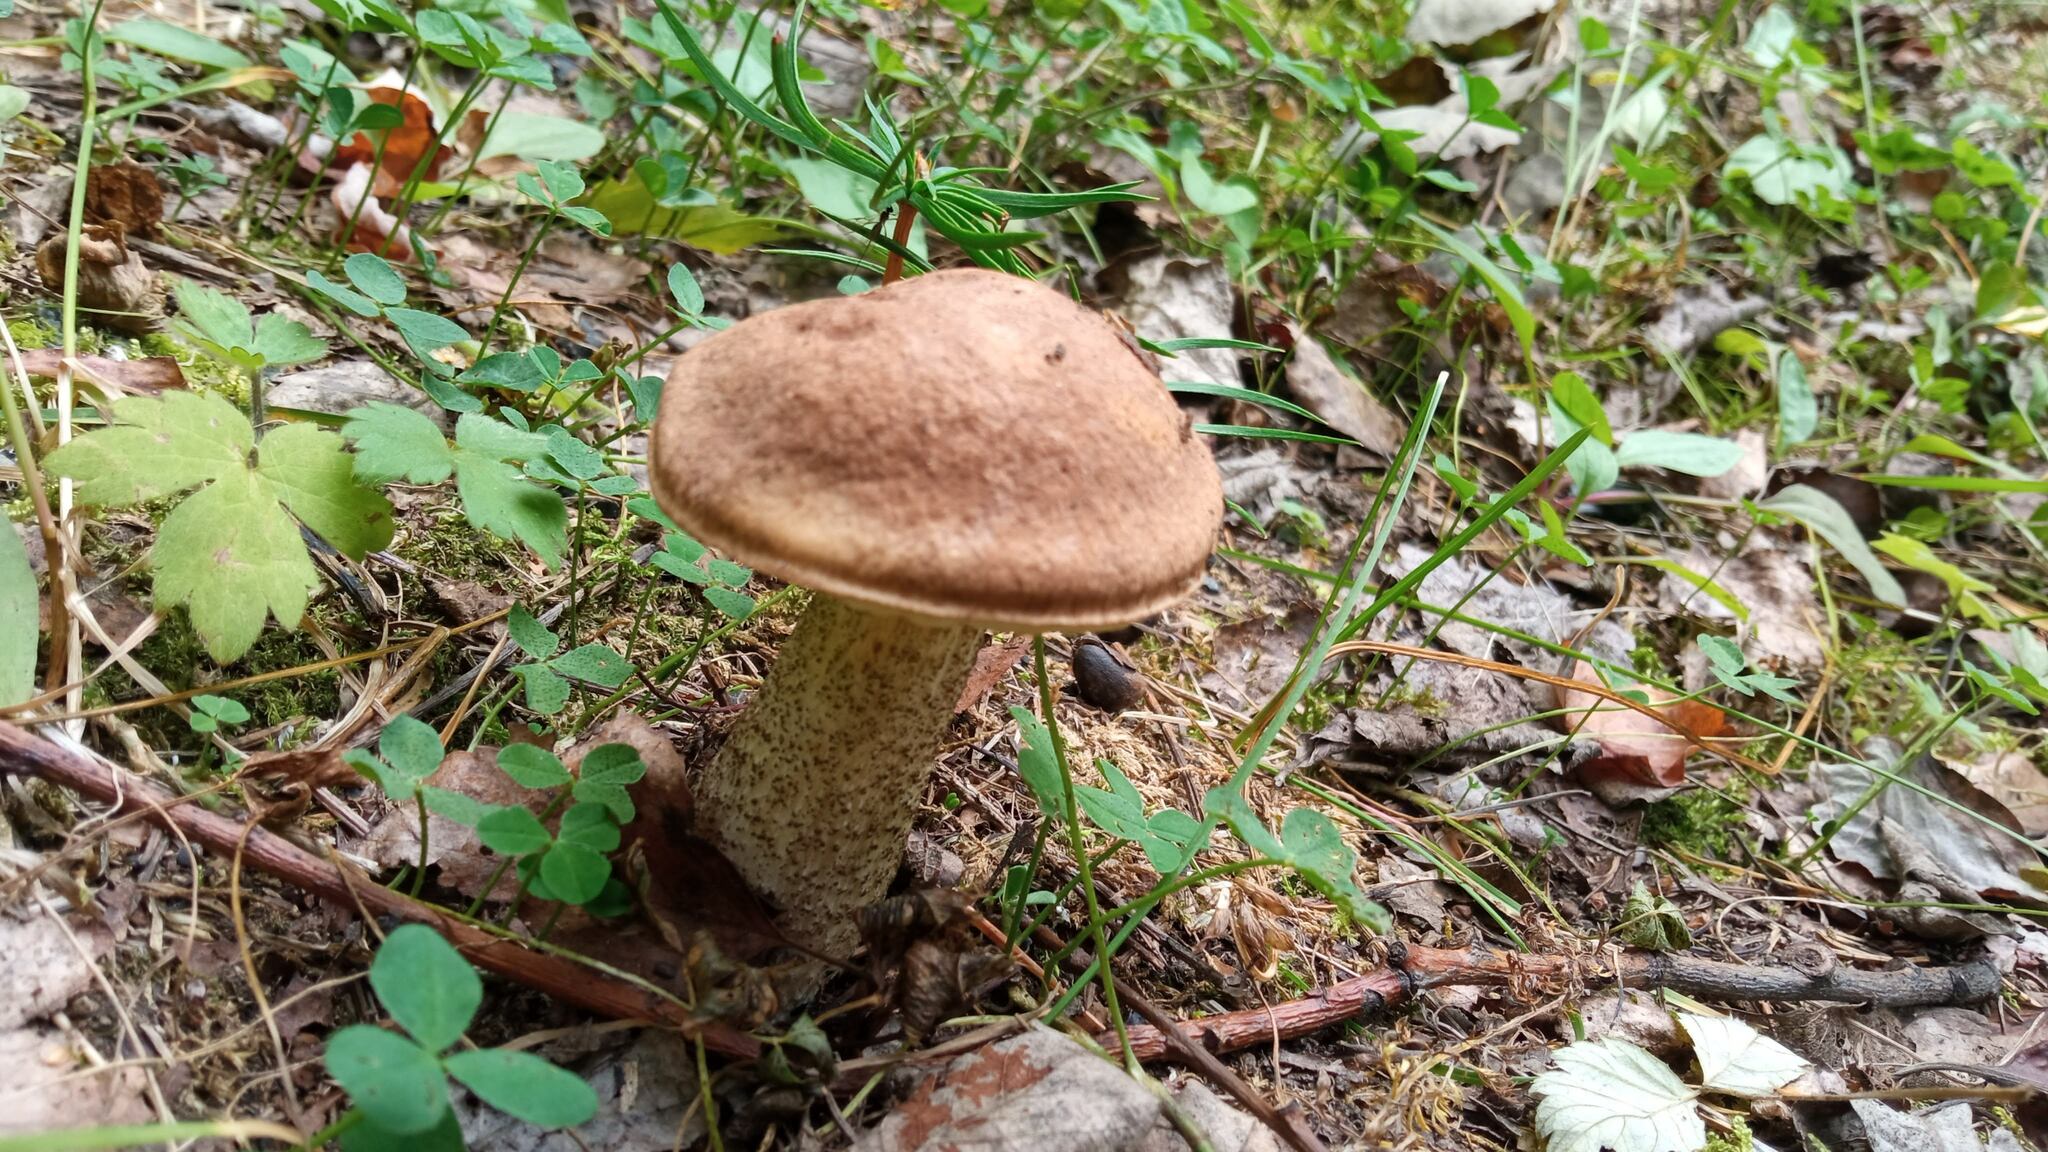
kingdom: Fungi
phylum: Basidiomycota
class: Agaricomycetes
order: Boletales
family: Boletaceae
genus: Leccinum
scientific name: Leccinum scabrum
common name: Blushing bolete
